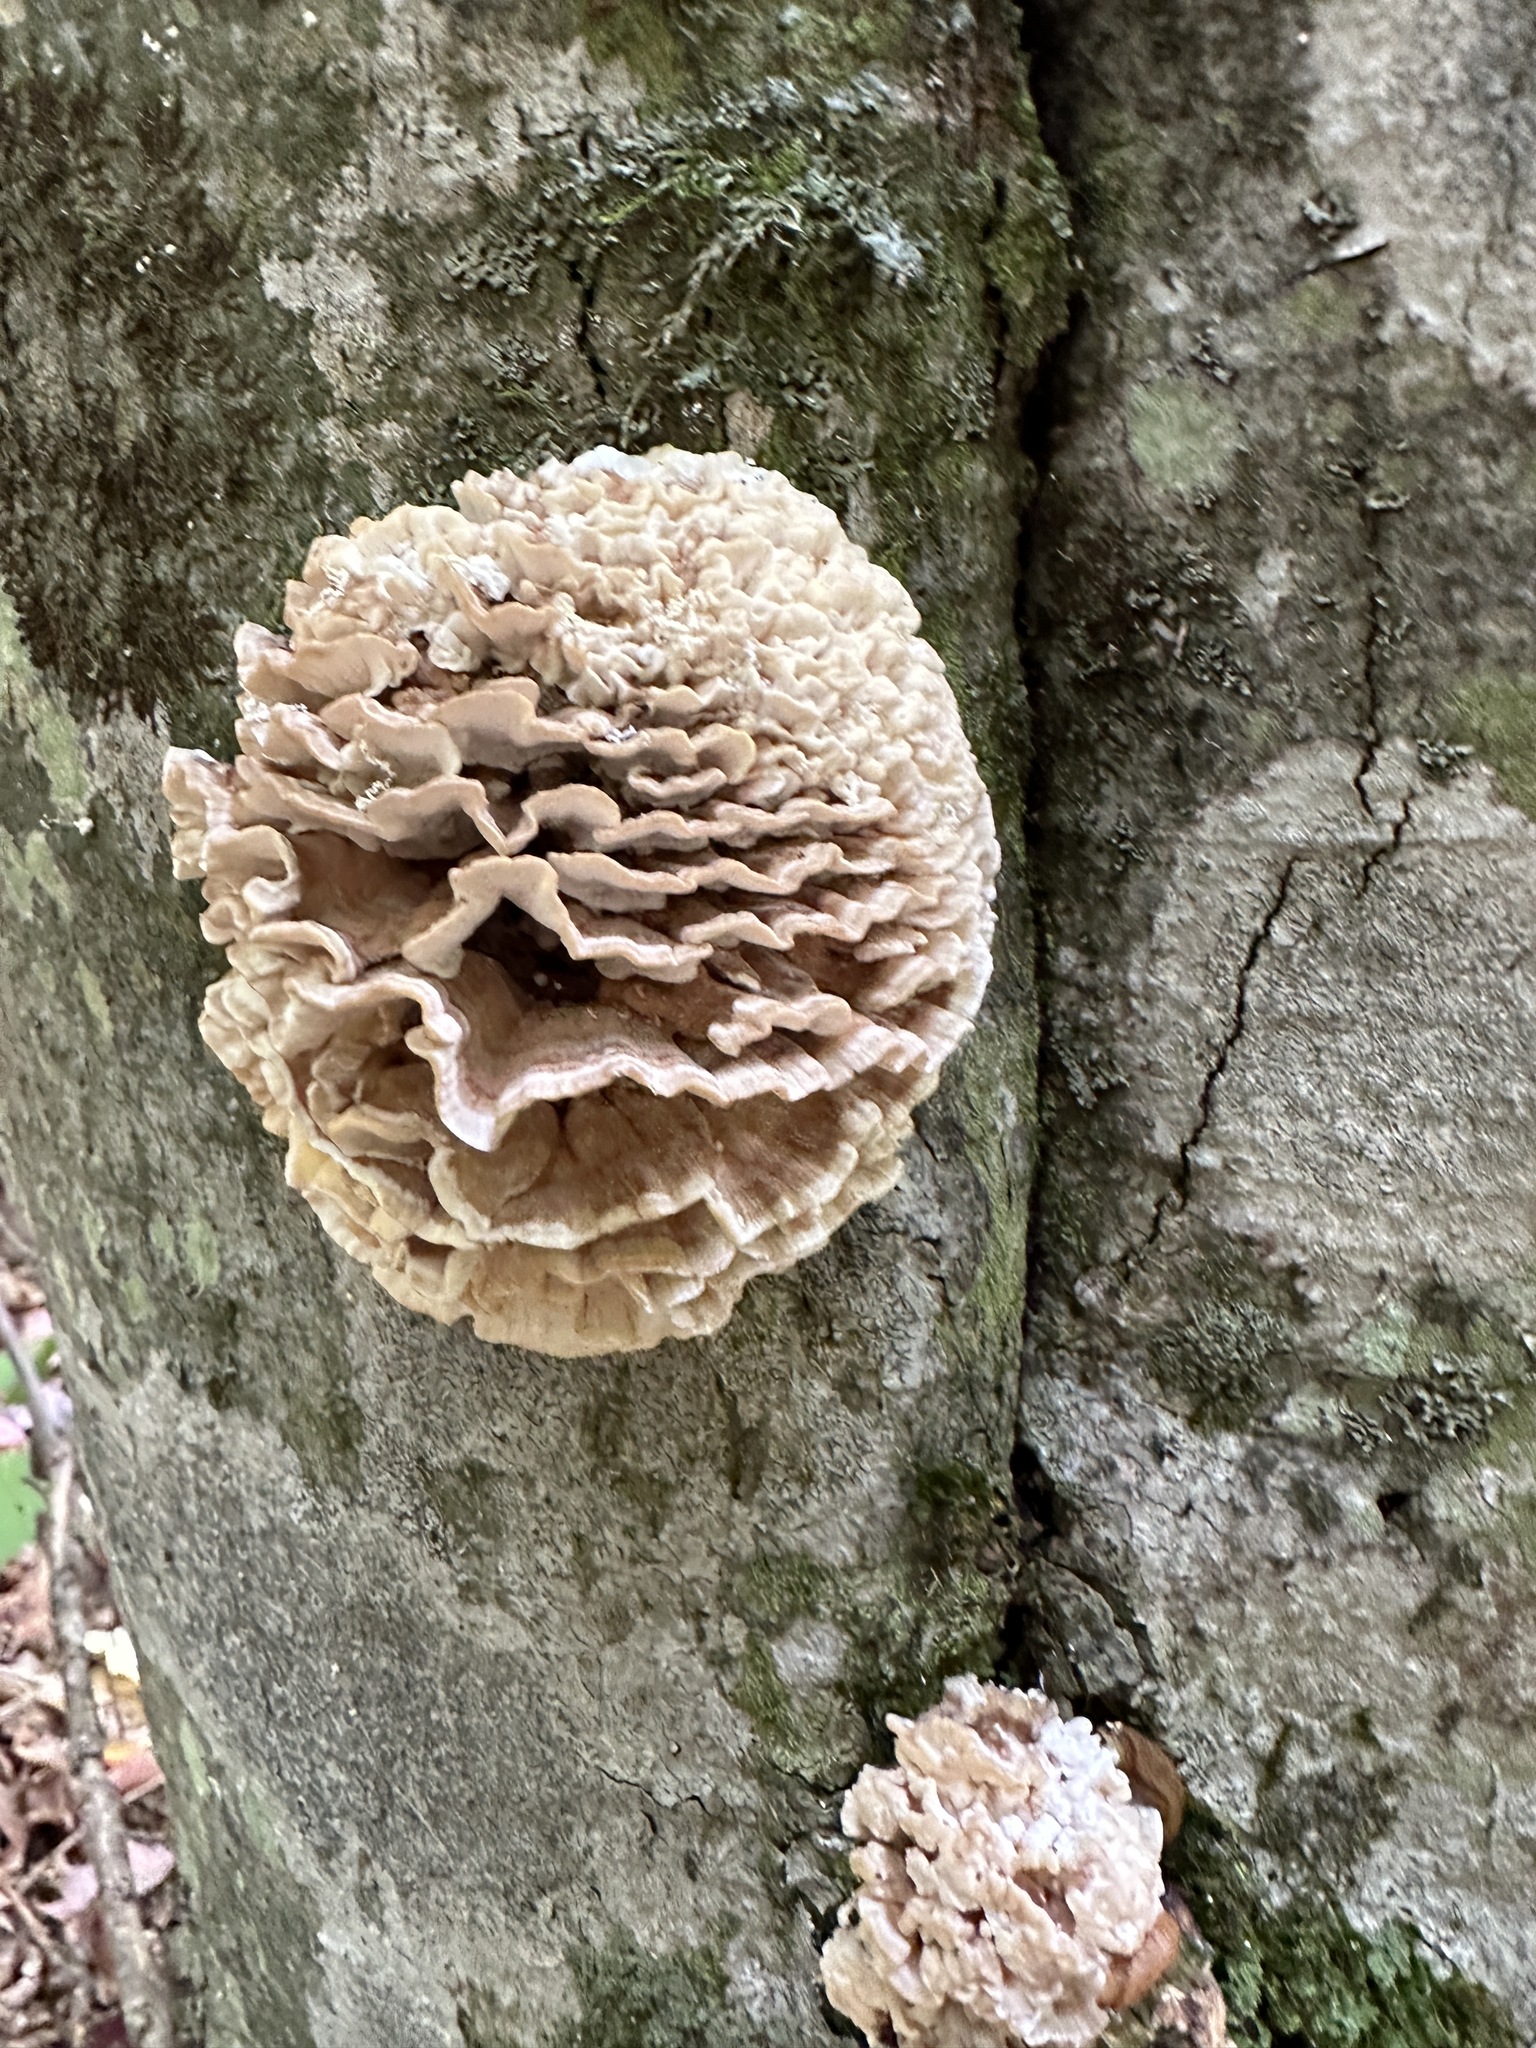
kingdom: Fungi
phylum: Basidiomycota
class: Agaricomycetes
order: Polyporales
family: Meruliaceae
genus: Climacodon
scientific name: Climacodon septentrionalis
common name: Northern tooth
